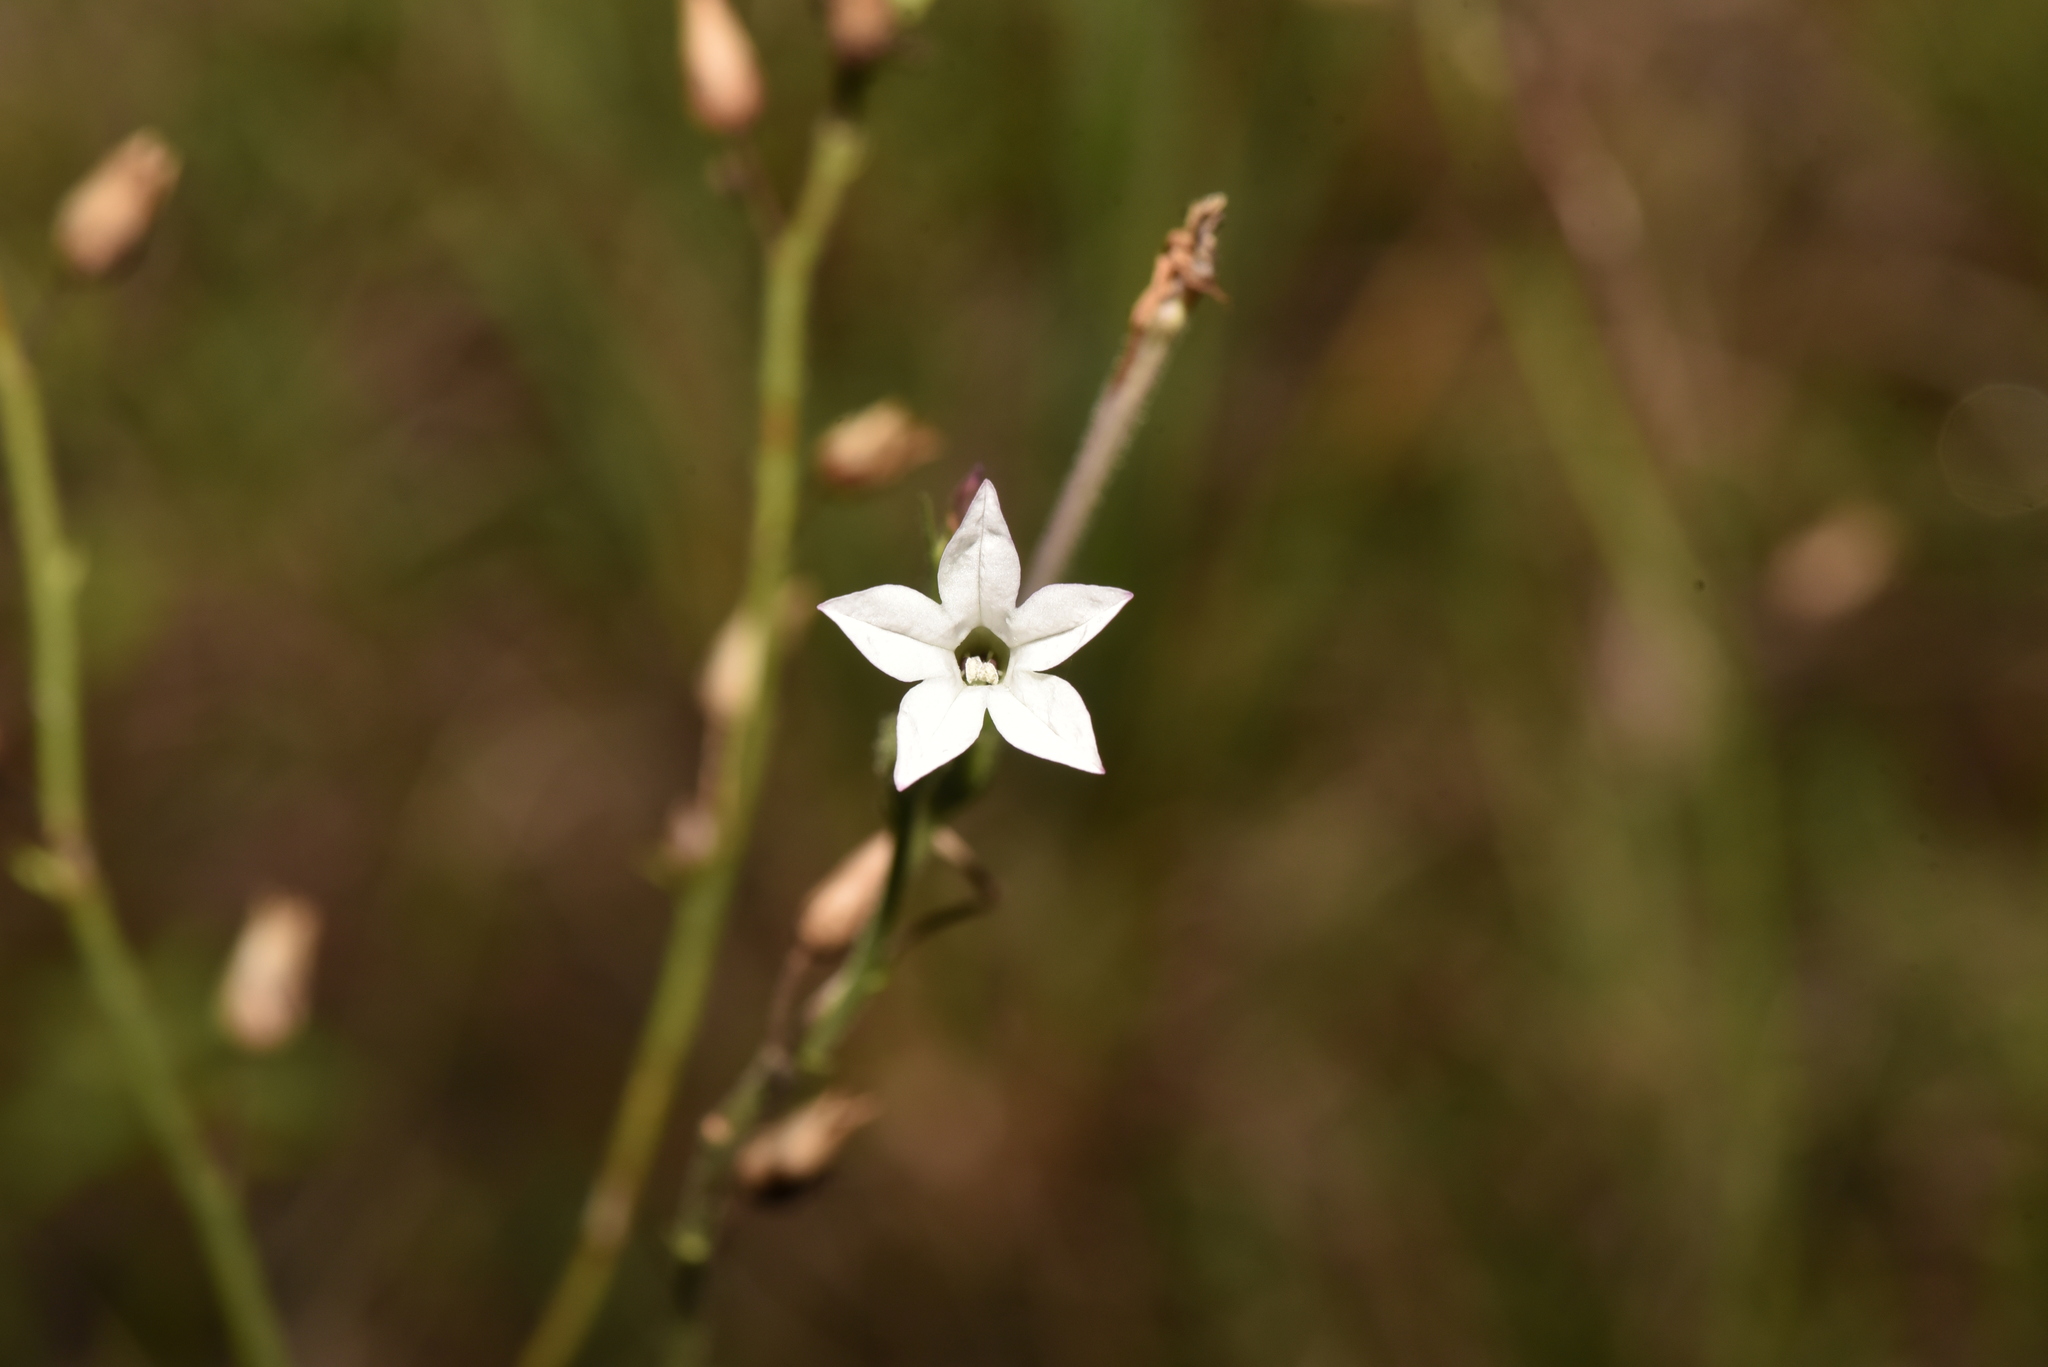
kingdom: Plantae
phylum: Tracheophyta
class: Magnoliopsida
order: Solanales
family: Solanaceae
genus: Nicotiana
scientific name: Nicotiana plumbaginifolia
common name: Tex-mex tobacco
